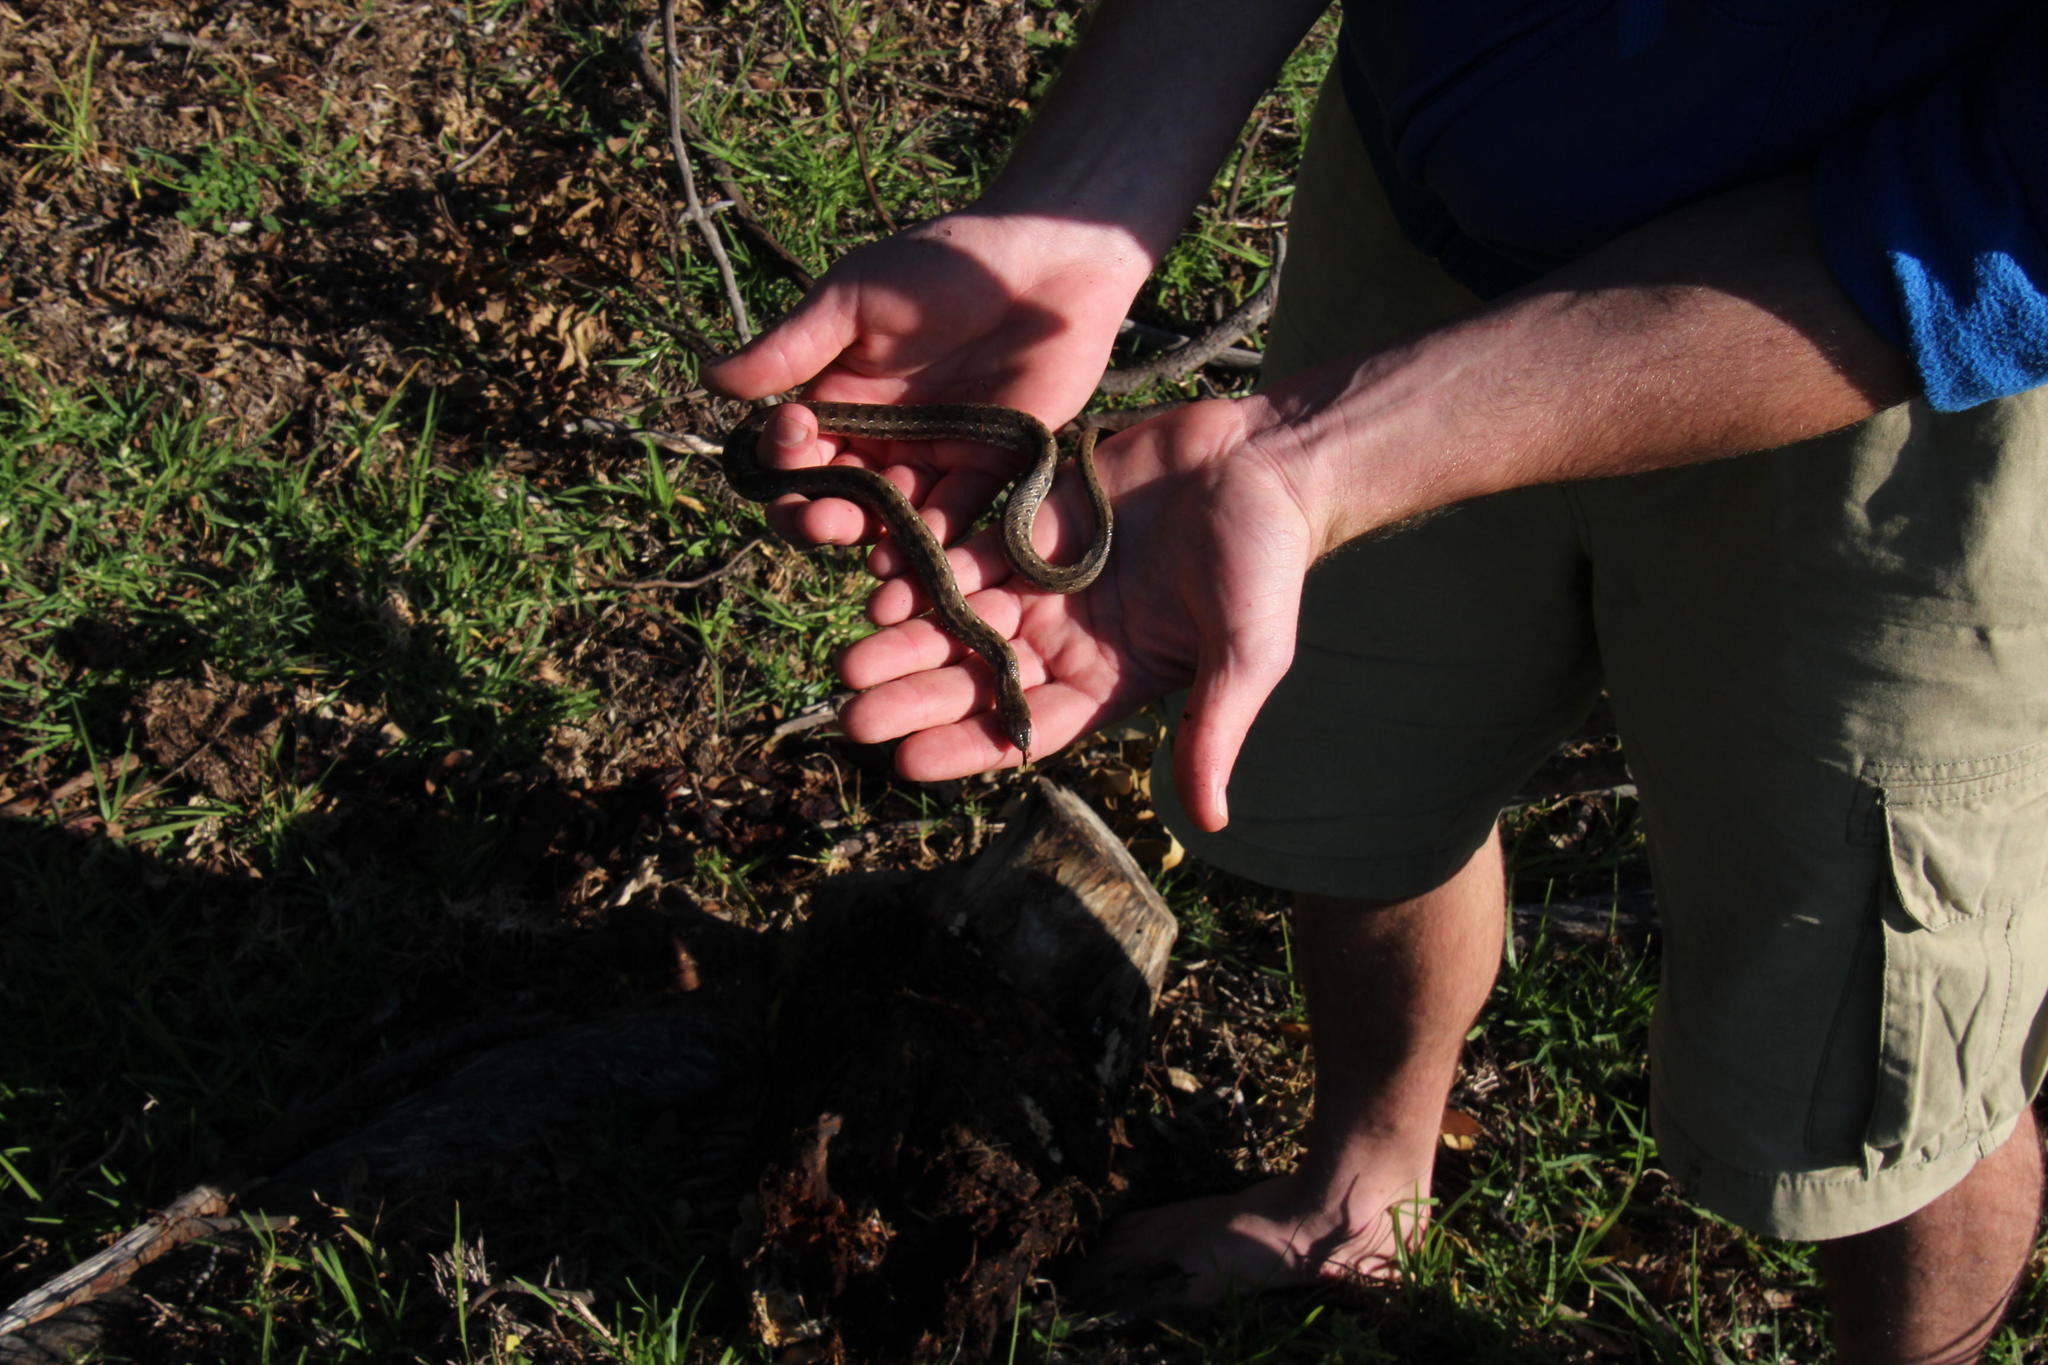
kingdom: Animalia
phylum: Chordata
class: Squamata
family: Pseudaspididae
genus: Pseudaspis
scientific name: Pseudaspis cana
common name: Mole snake
